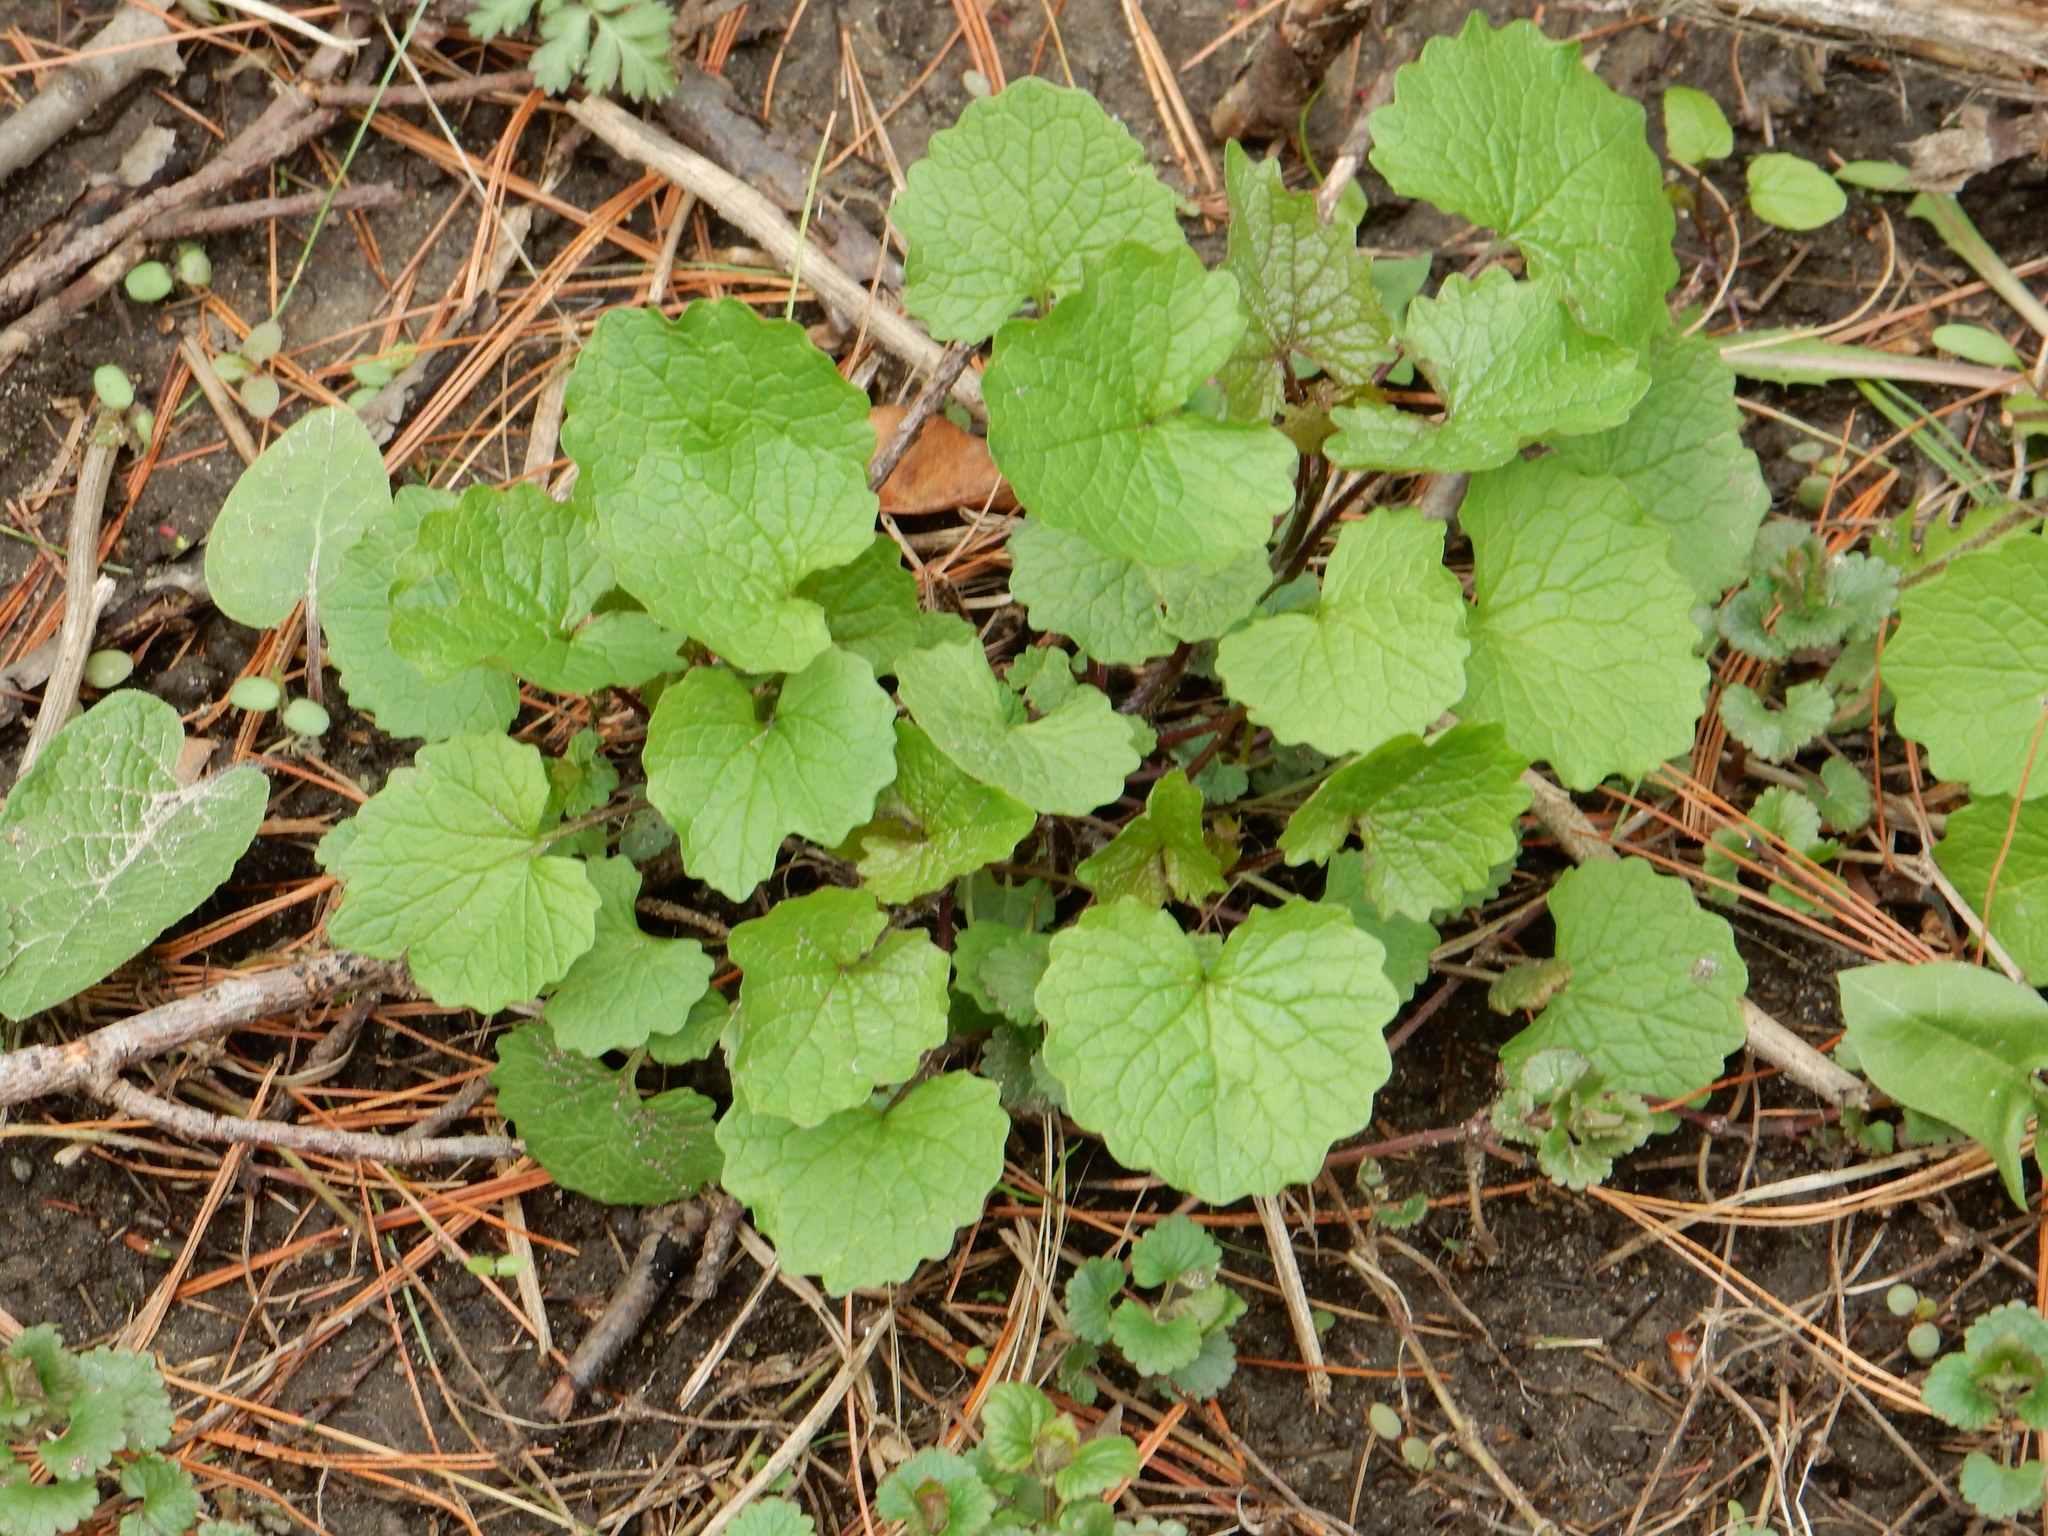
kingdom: Plantae
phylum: Tracheophyta
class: Magnoliopsida
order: Brassicales
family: Brassicaceae
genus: Alliaria
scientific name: Alliaria petiolata
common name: Garlic mustard
